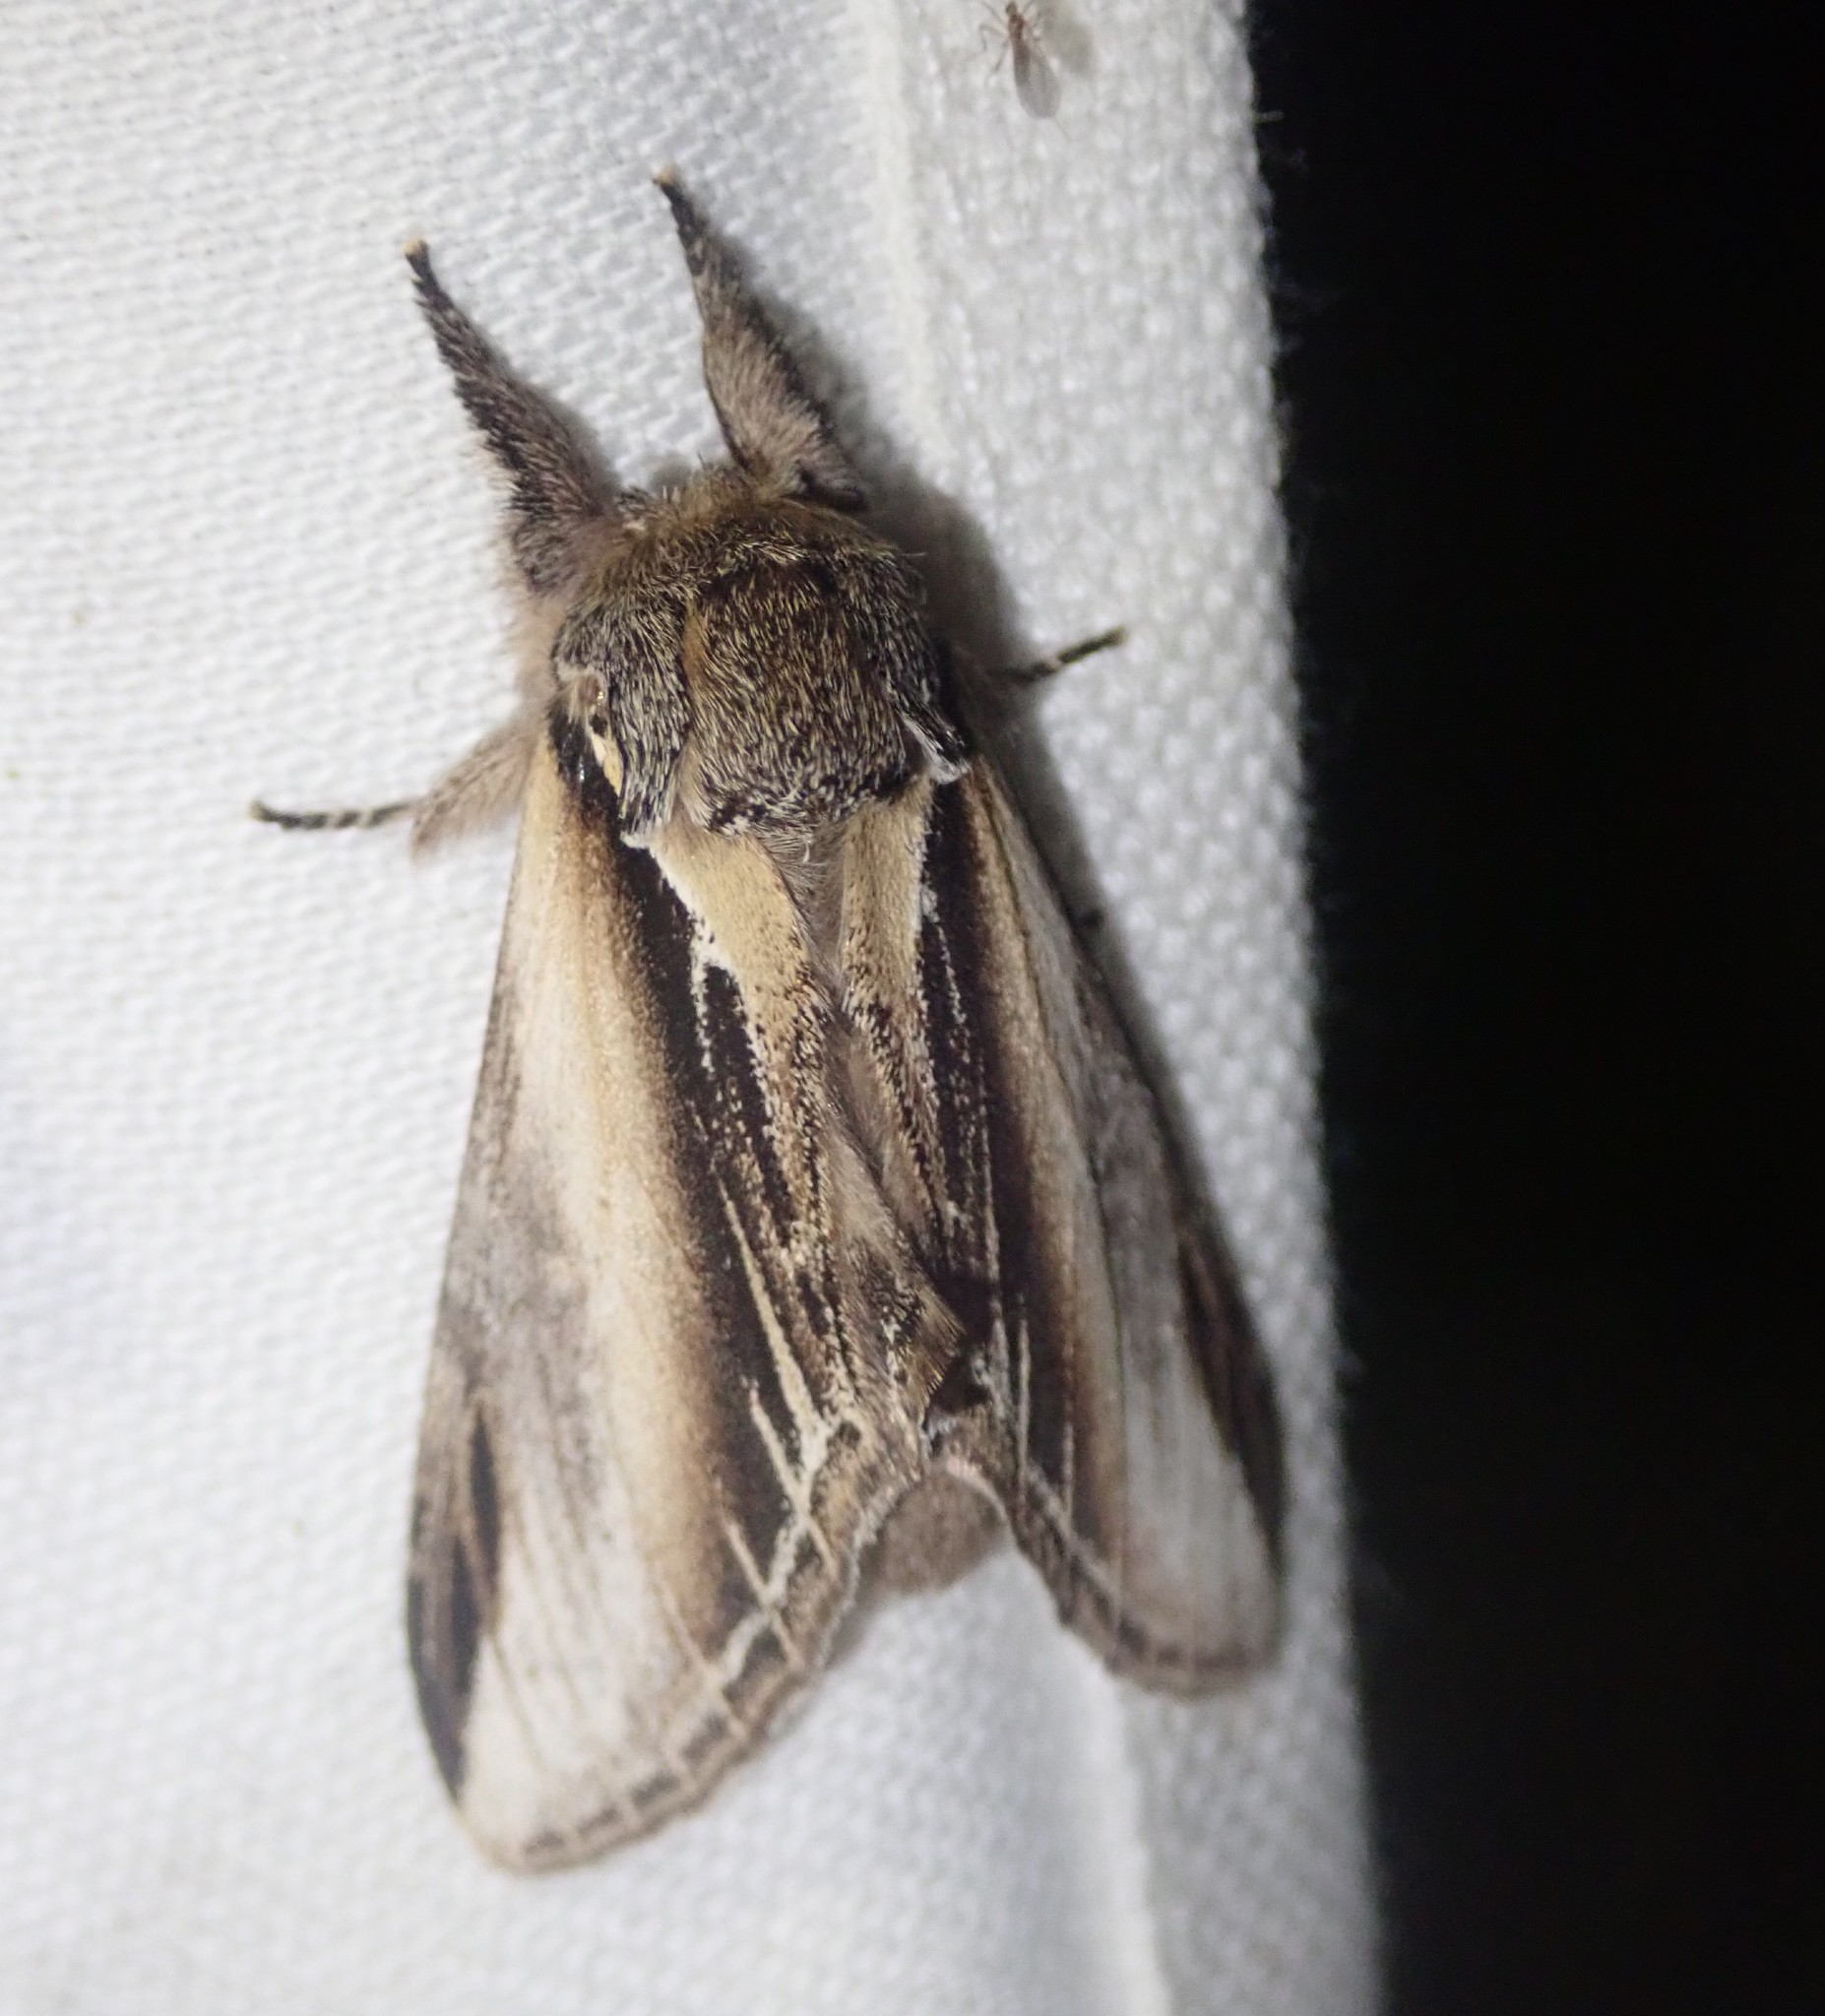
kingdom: Animalia
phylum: Arthropoda
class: Insecta
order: Lepidoptera
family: Notodontidae
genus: Pheosia
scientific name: Pheosia tremula
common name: Swallow prominent
